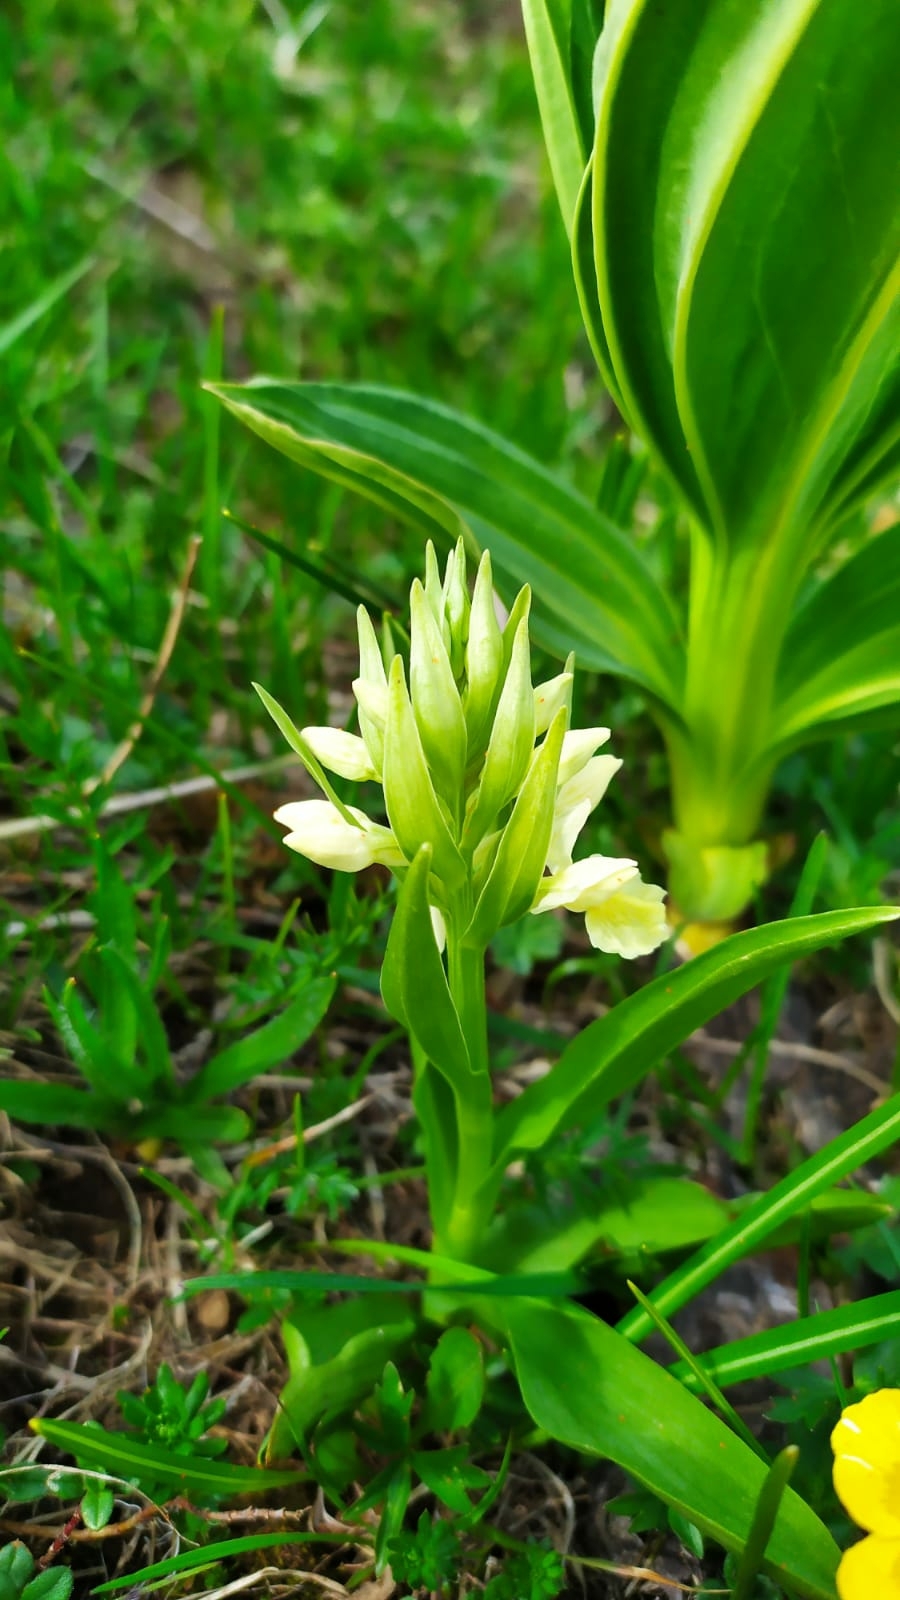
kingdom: Plantae
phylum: Tracheophyta
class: Liliopsida
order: Asparagales
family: Orchidaceae
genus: Dactylorhiza
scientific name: Dactylorhiza sambucina
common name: Elder-flowered orchid
